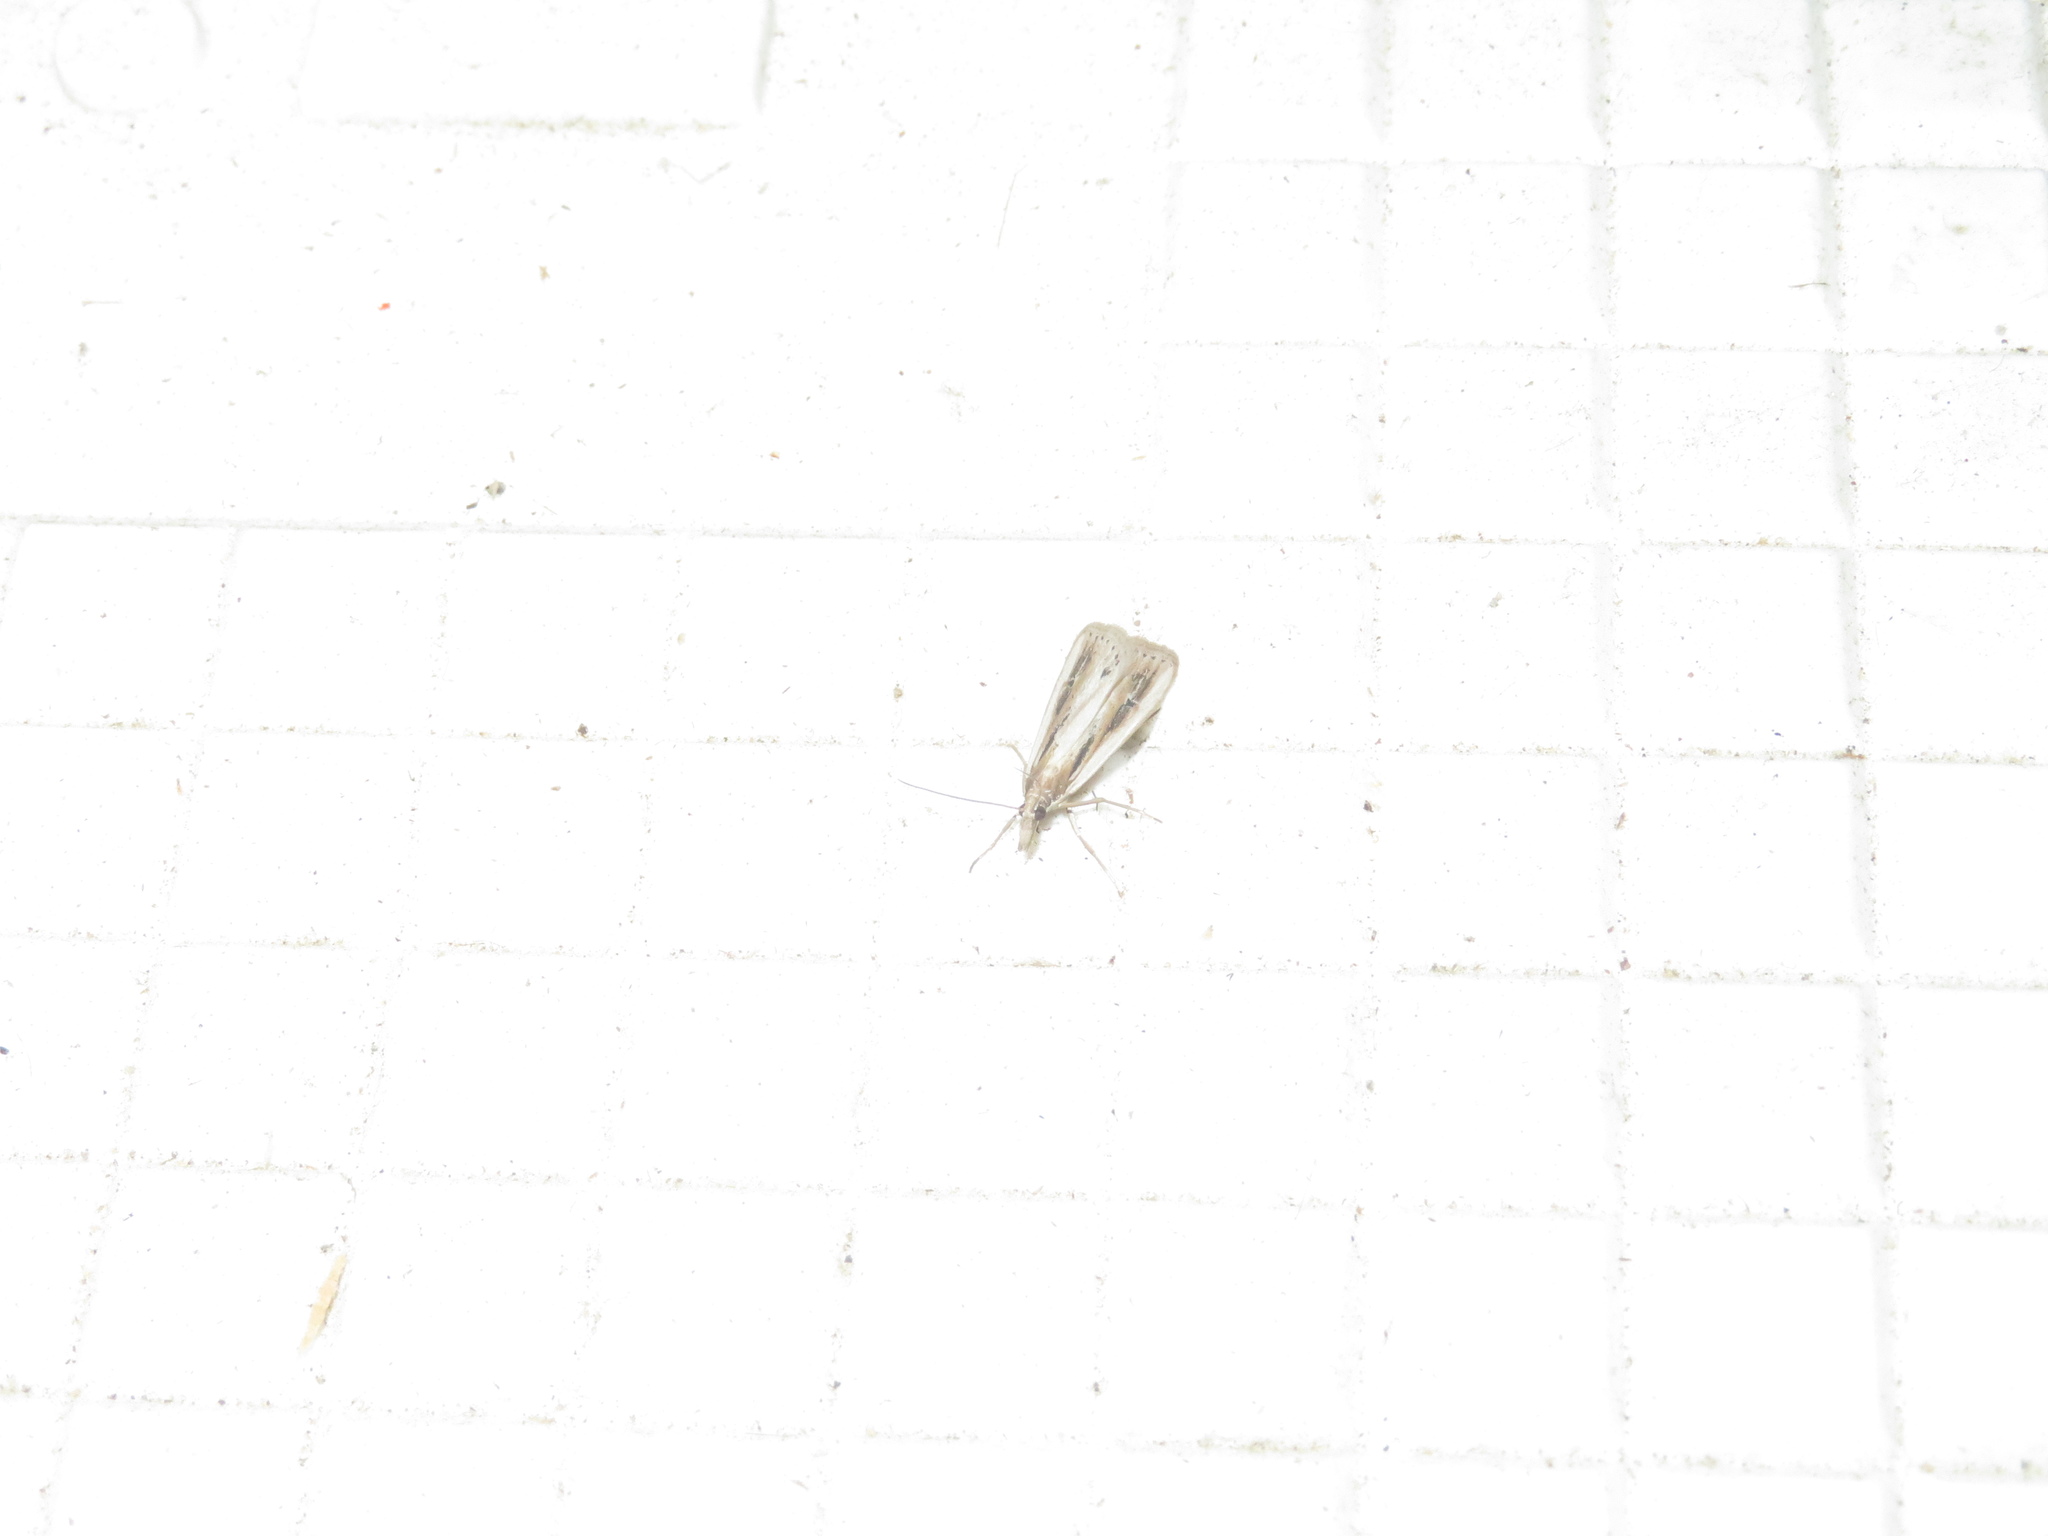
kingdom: Animalia
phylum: Arthropoda
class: Insecta
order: Lepidoptera
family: Crambidae
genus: Eudonia
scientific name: Eudonia sabulosella
